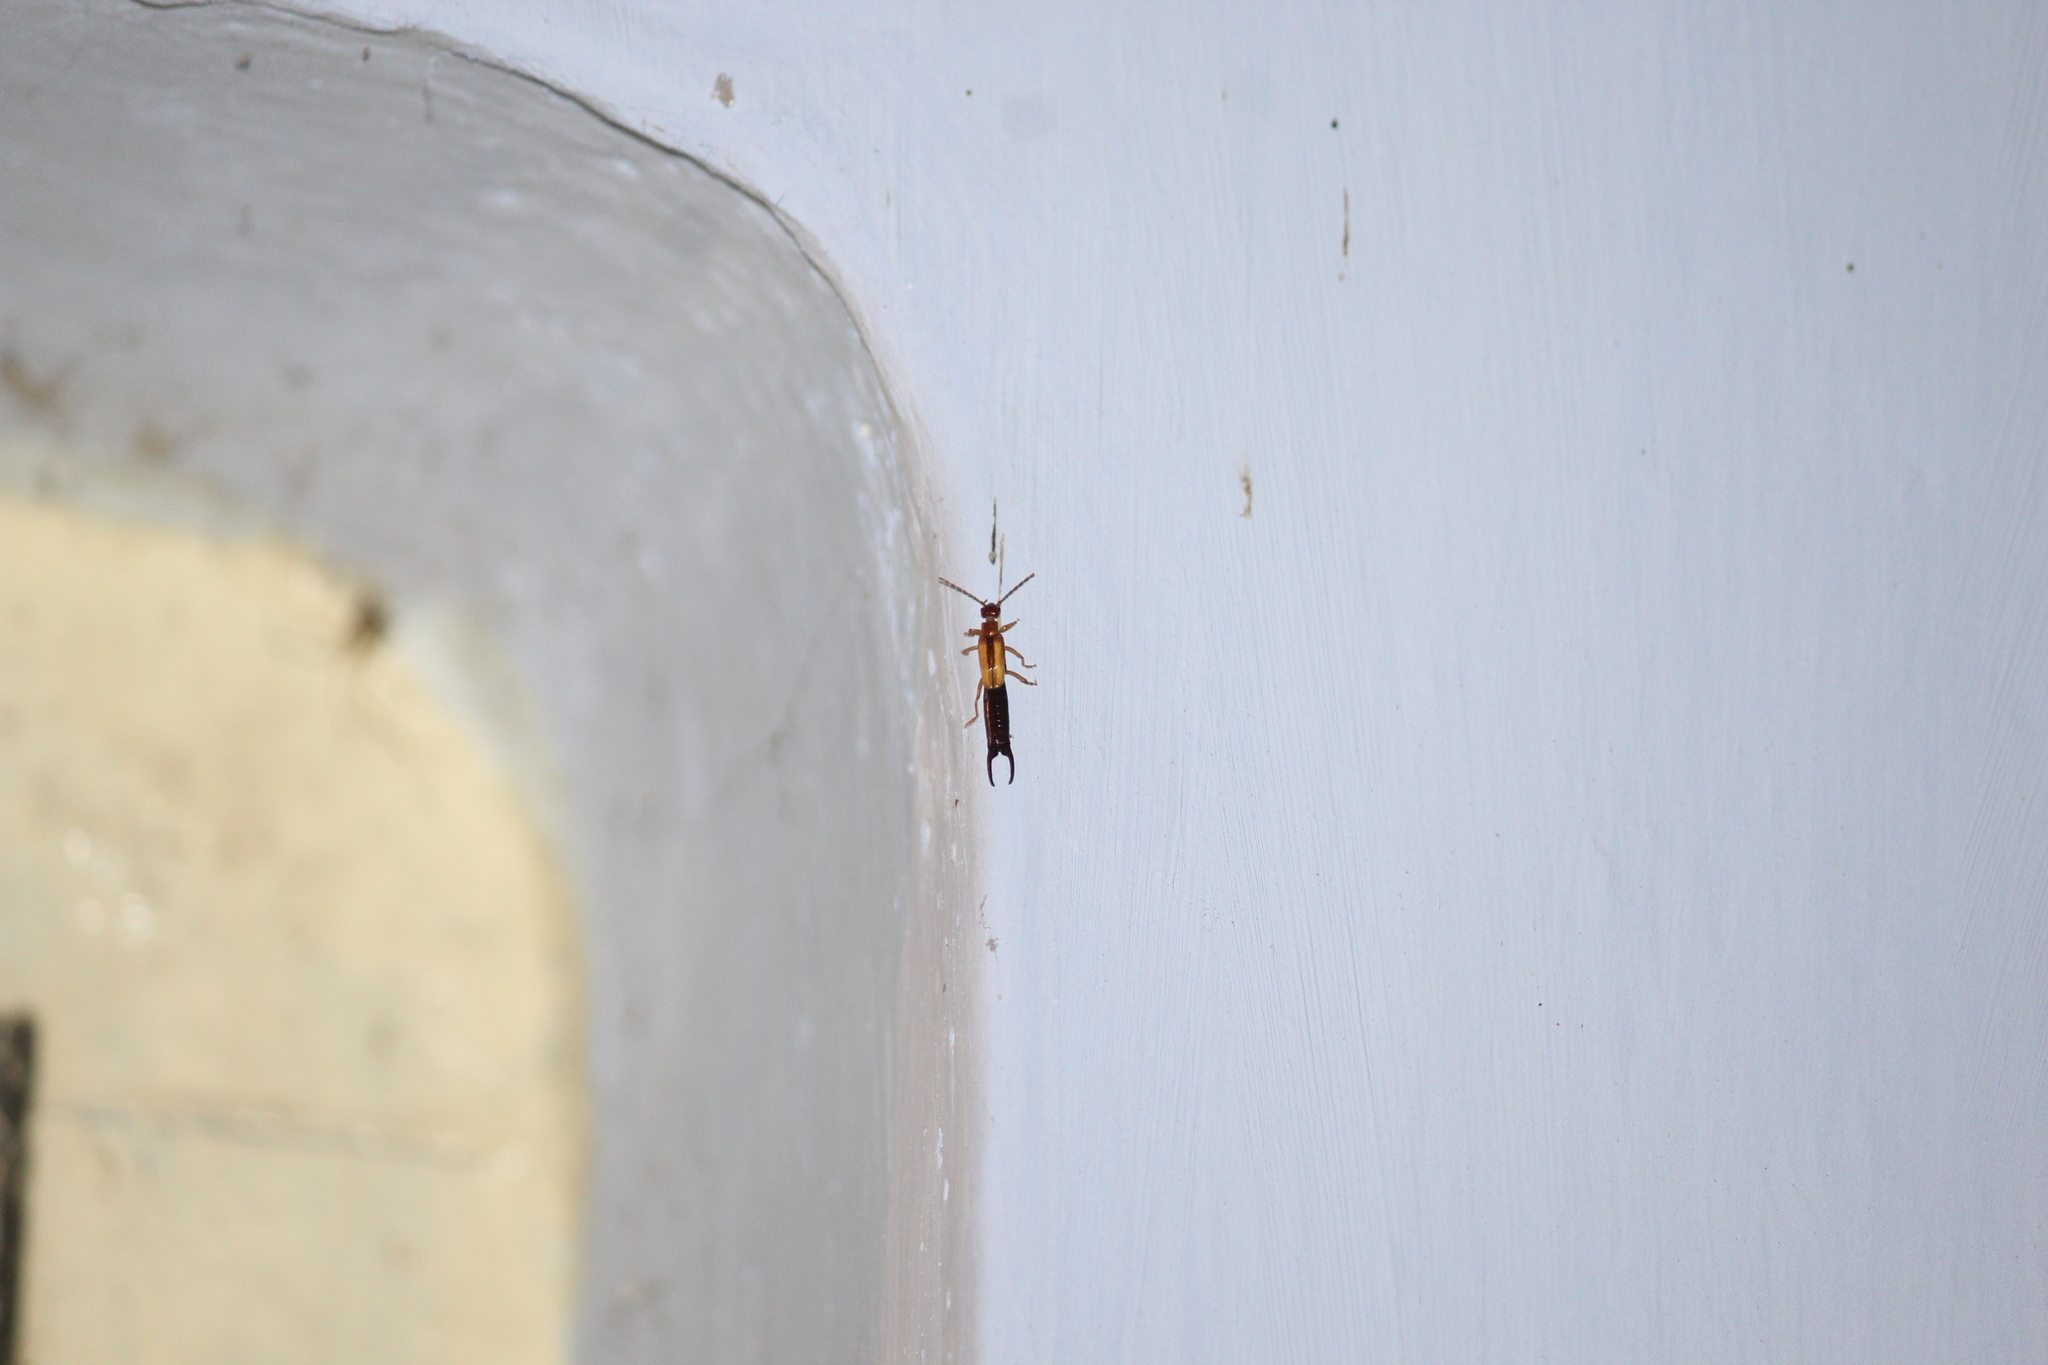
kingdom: Animalia
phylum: Arthropoda
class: Insecta
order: Dermaptera
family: Forficulidae
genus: Elaunon
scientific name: Elaunon bipartitus
